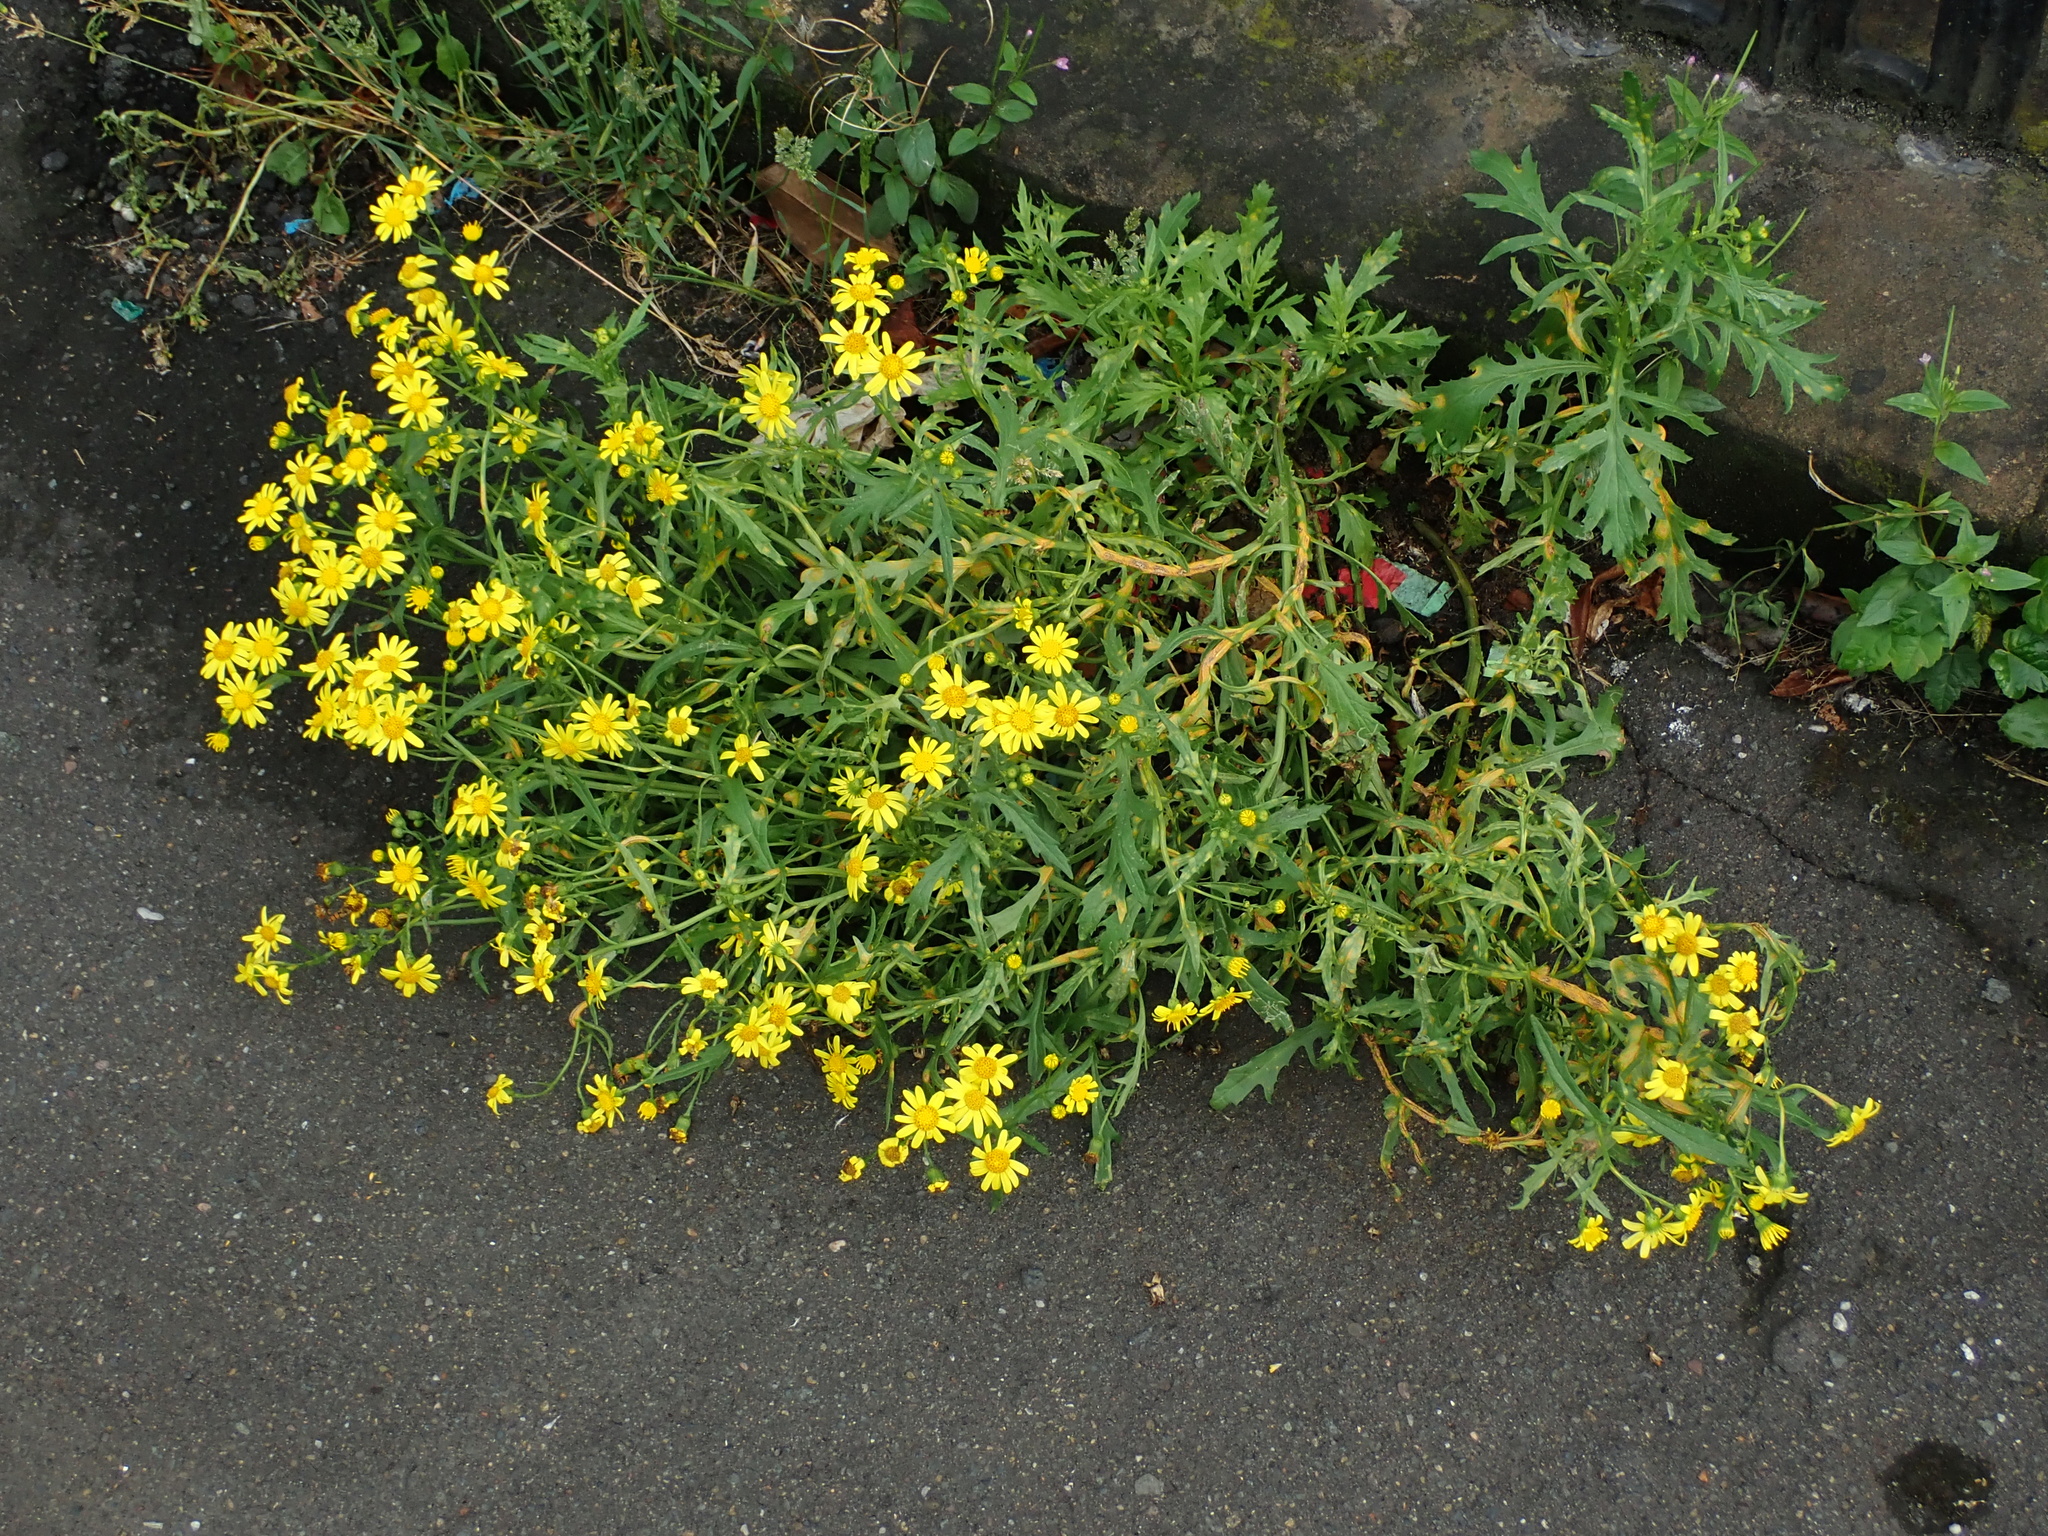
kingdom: Plantae
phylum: Tracheophyta
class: Magnoliopsida
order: Asterales
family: Asteraceae
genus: Senecio
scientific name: Senecio squalidus
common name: Oxford ragwort
